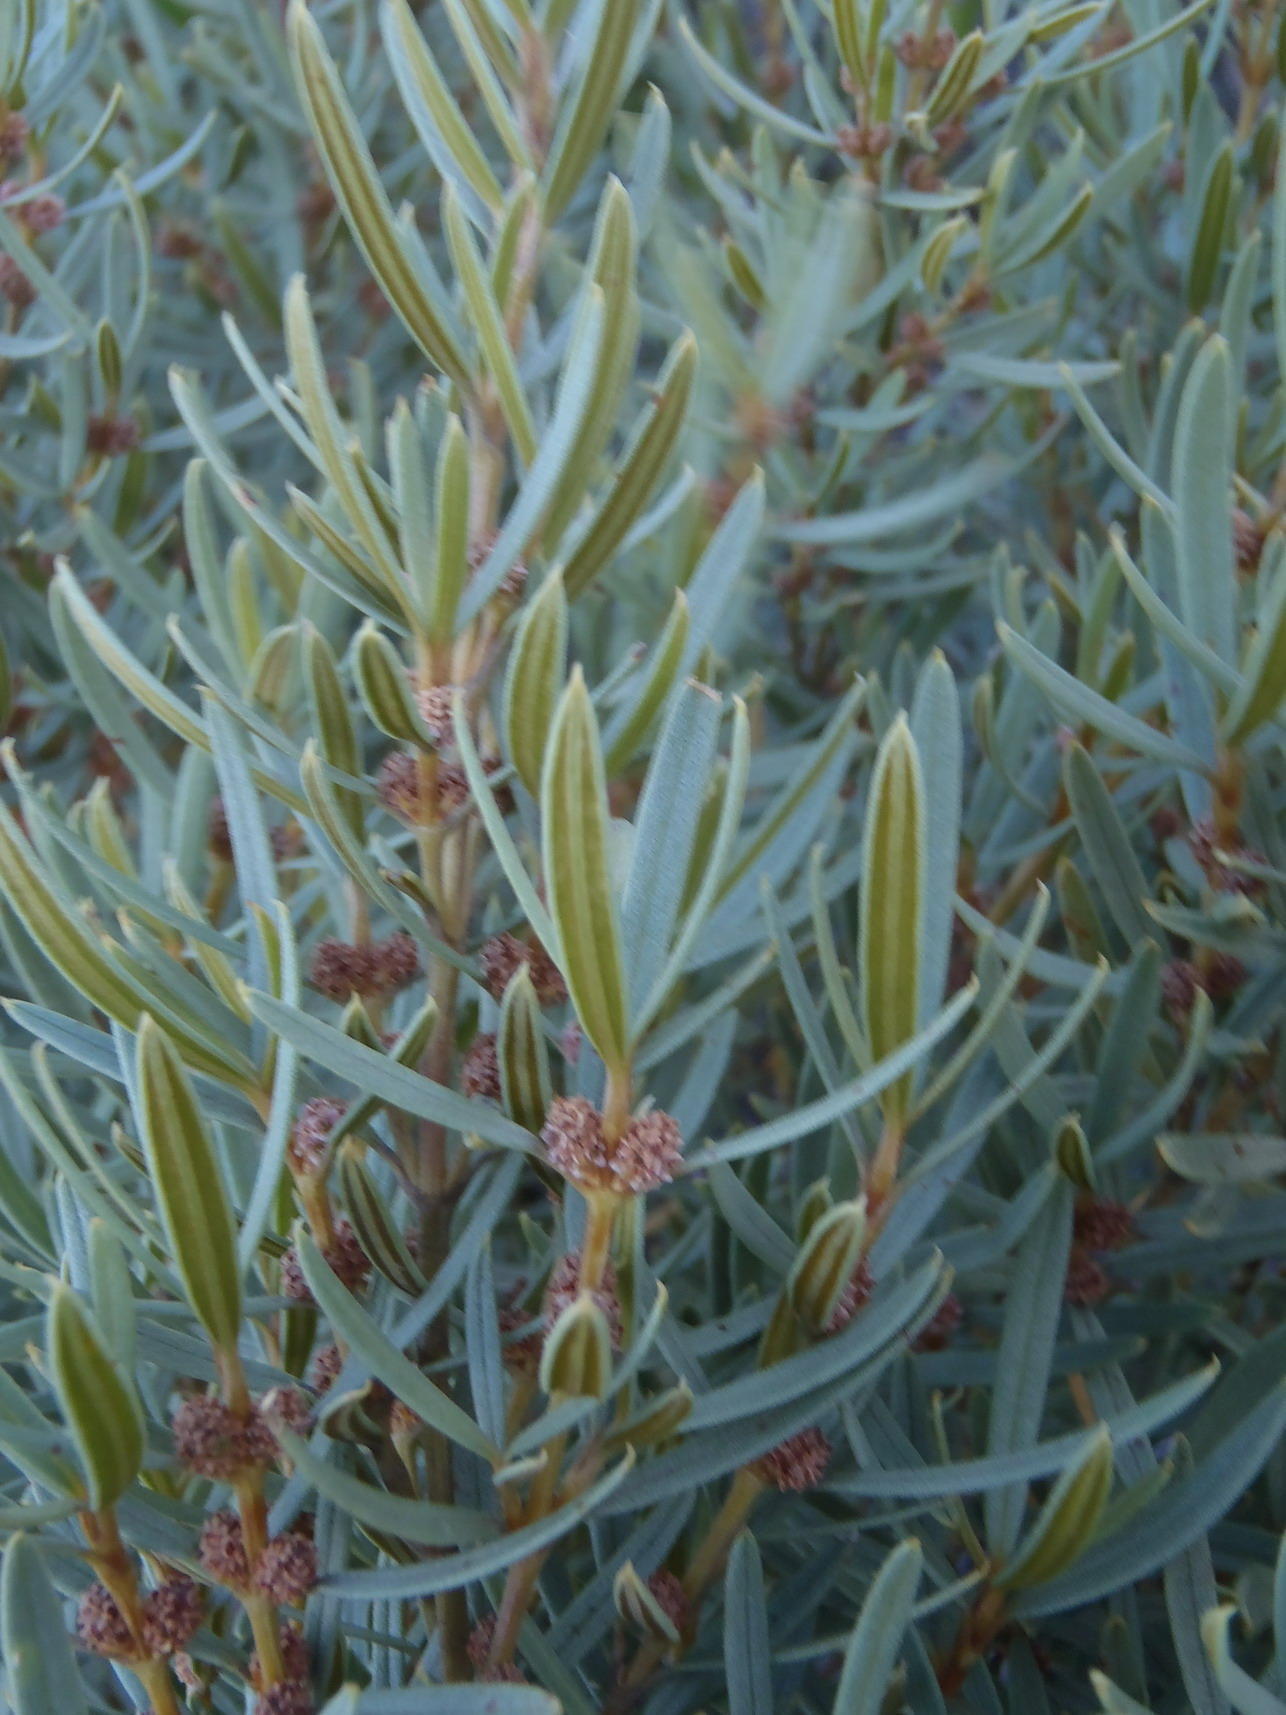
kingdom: Plantae
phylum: Tracheophyta
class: Magnoliopsida
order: Cornales
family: Grubbiaceae
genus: Grubbia
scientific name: Grubbia tomentosa
